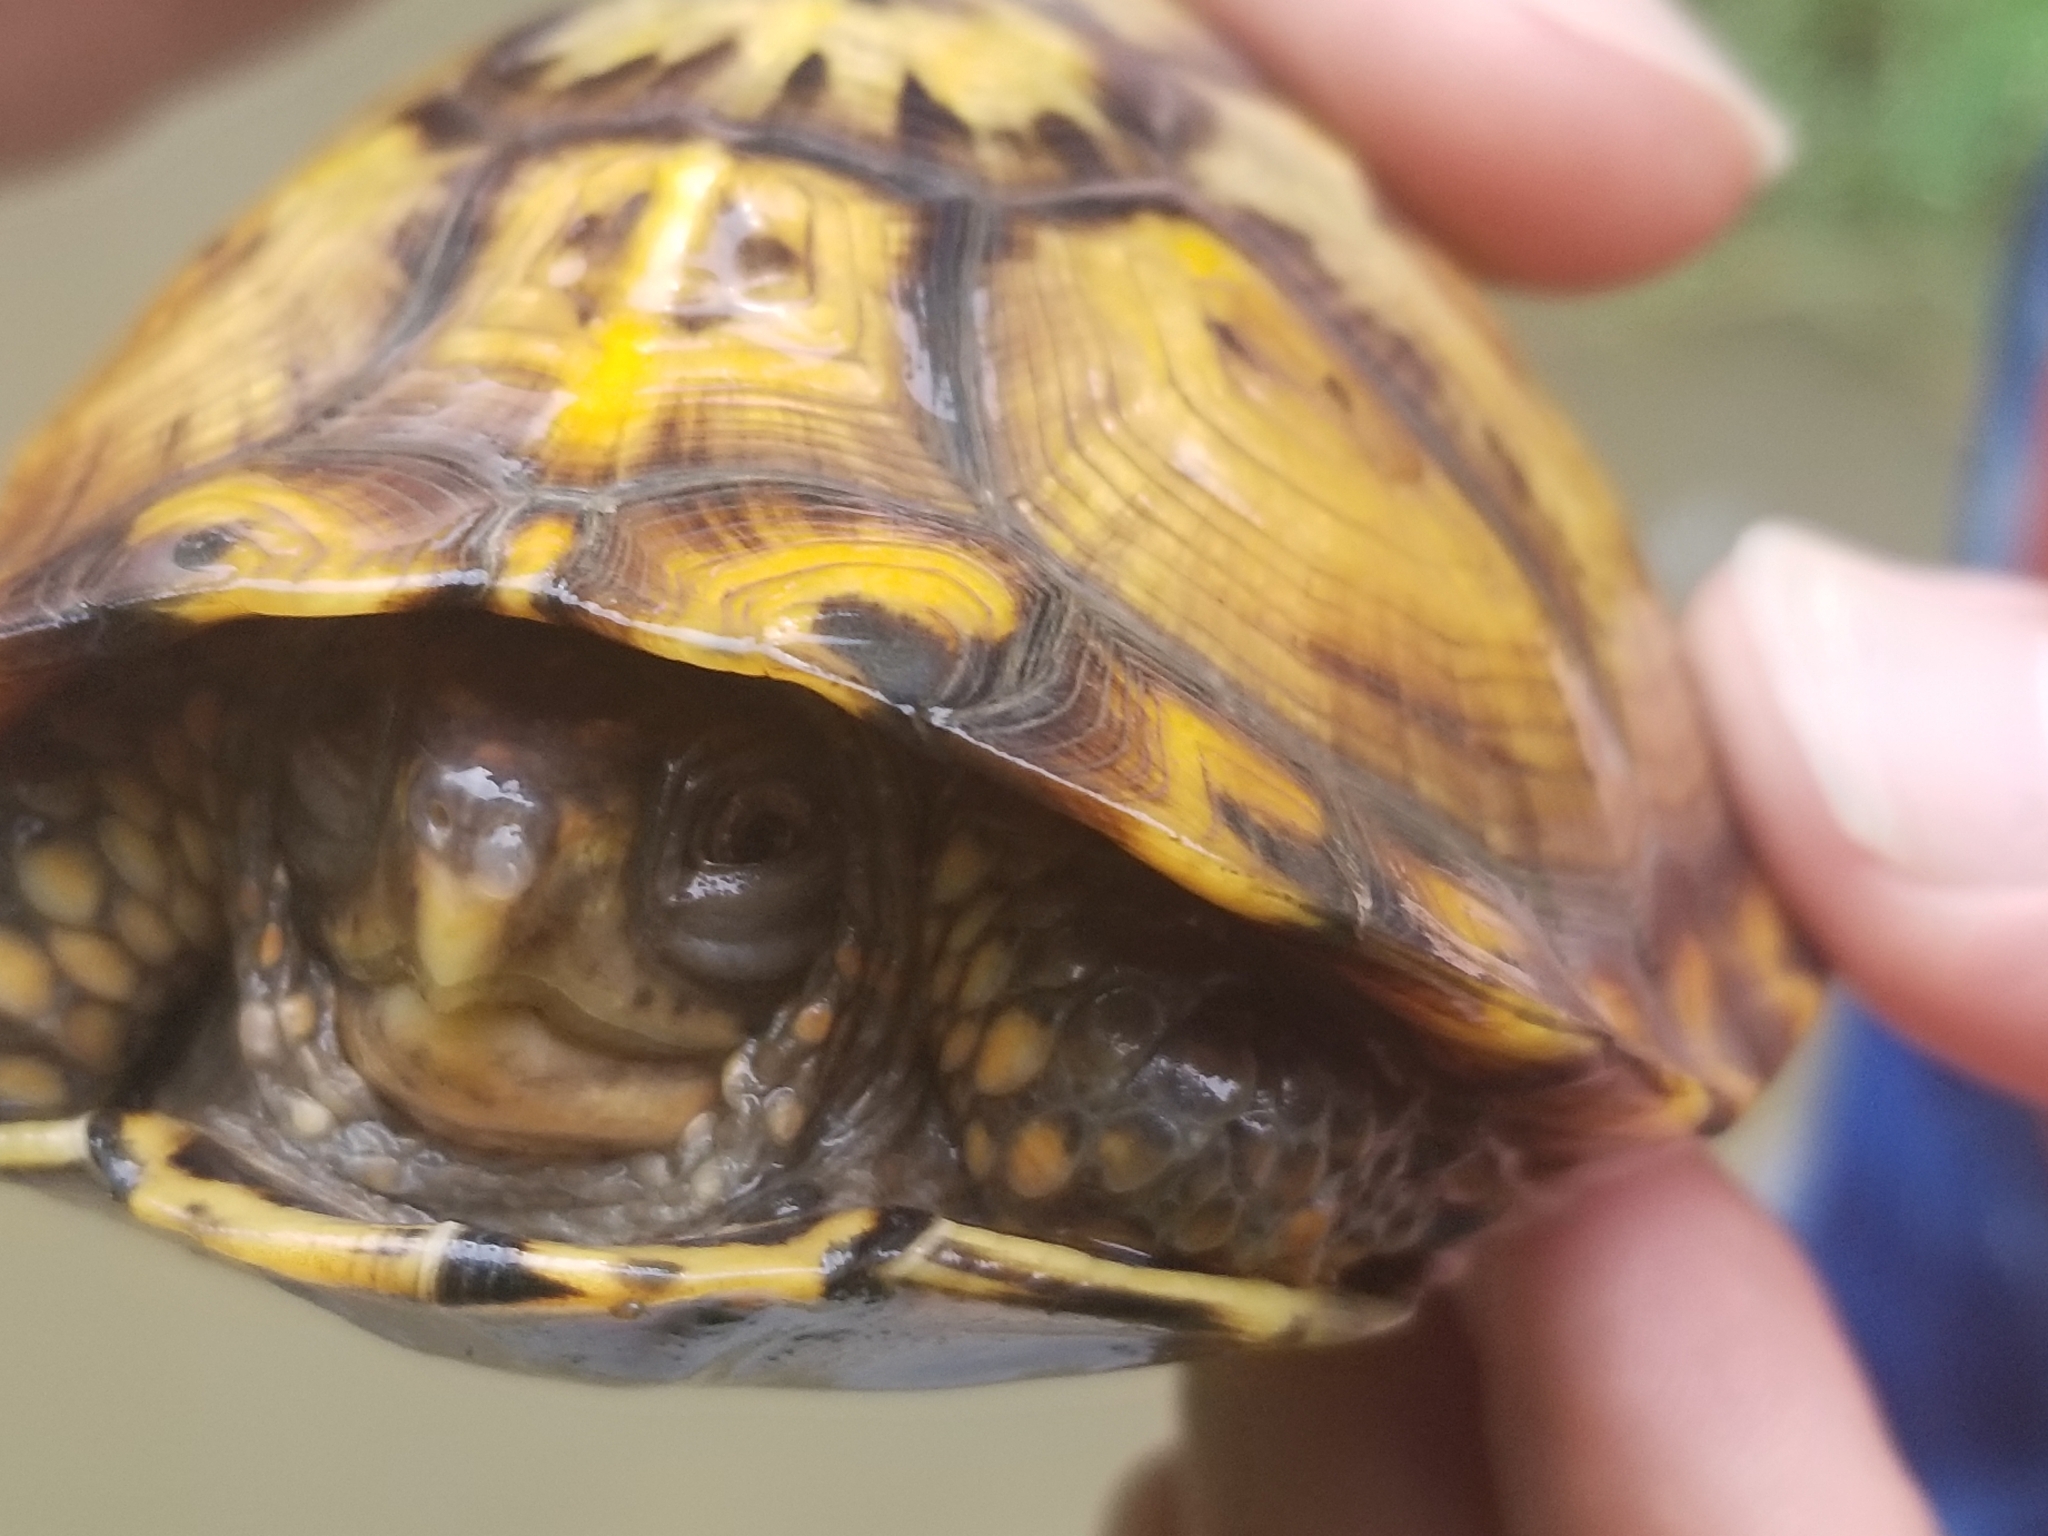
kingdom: Animalia
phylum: Chordata
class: Testudines
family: Emydidae
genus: Terrapene
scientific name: Terrapene carolina
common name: Common box turtle
